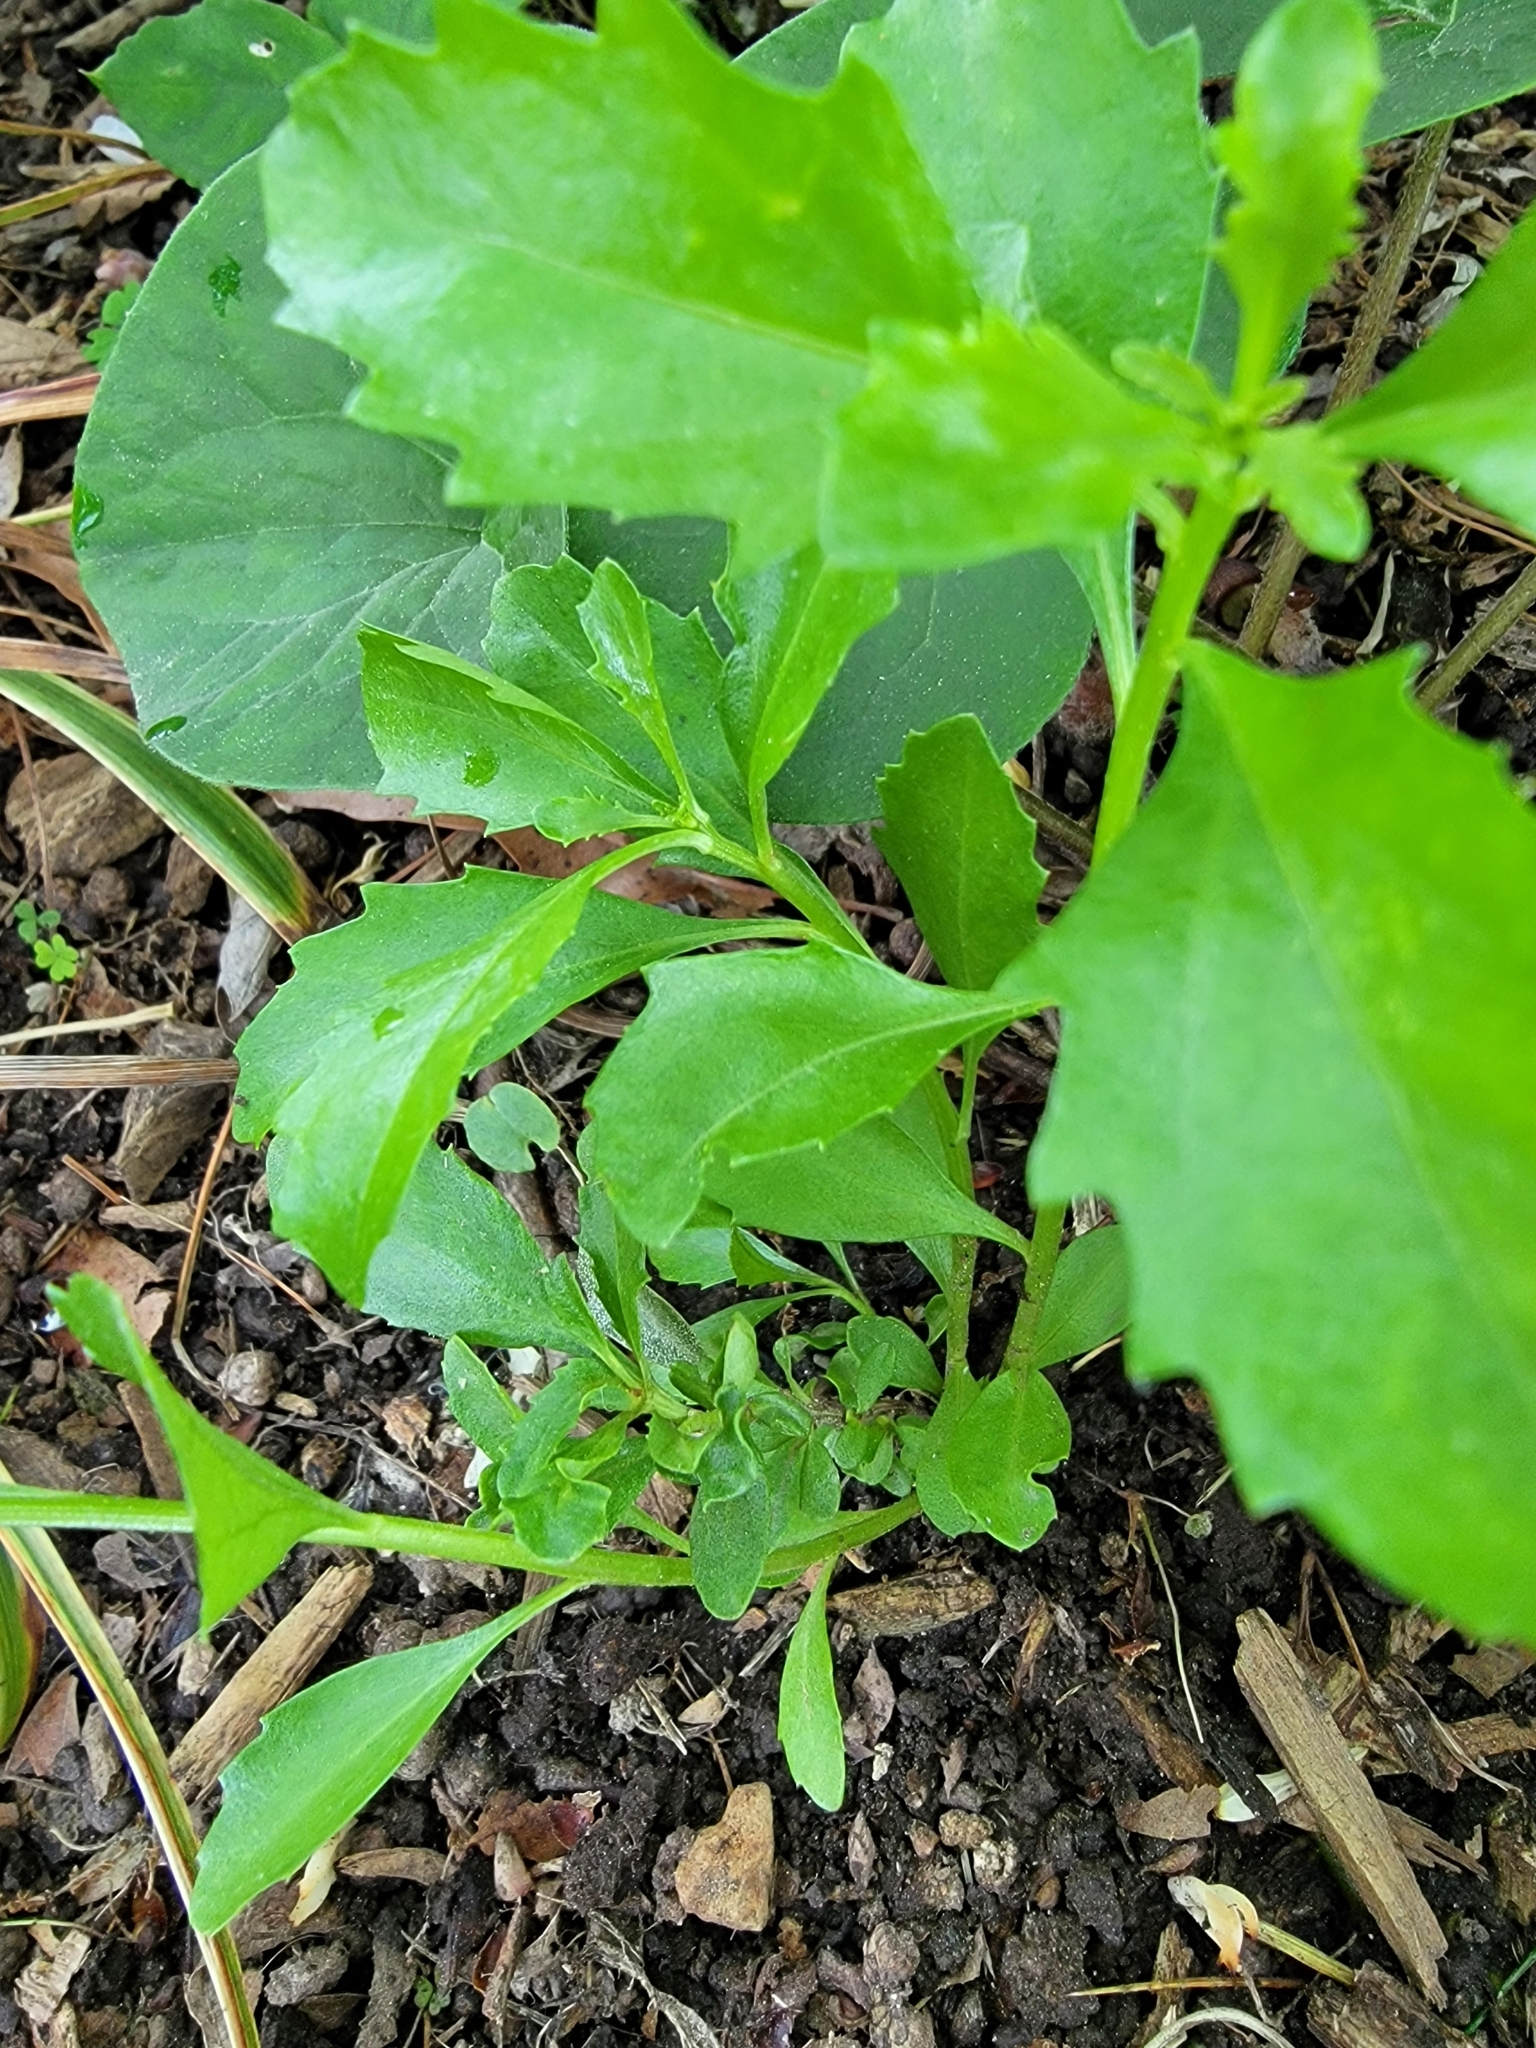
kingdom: Plantae
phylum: Tracheophyta
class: Magnoliopsida
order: Asterales
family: Asteraceae
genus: Baccharis
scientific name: Baccharis halimifolia
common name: Eastern baccharis
